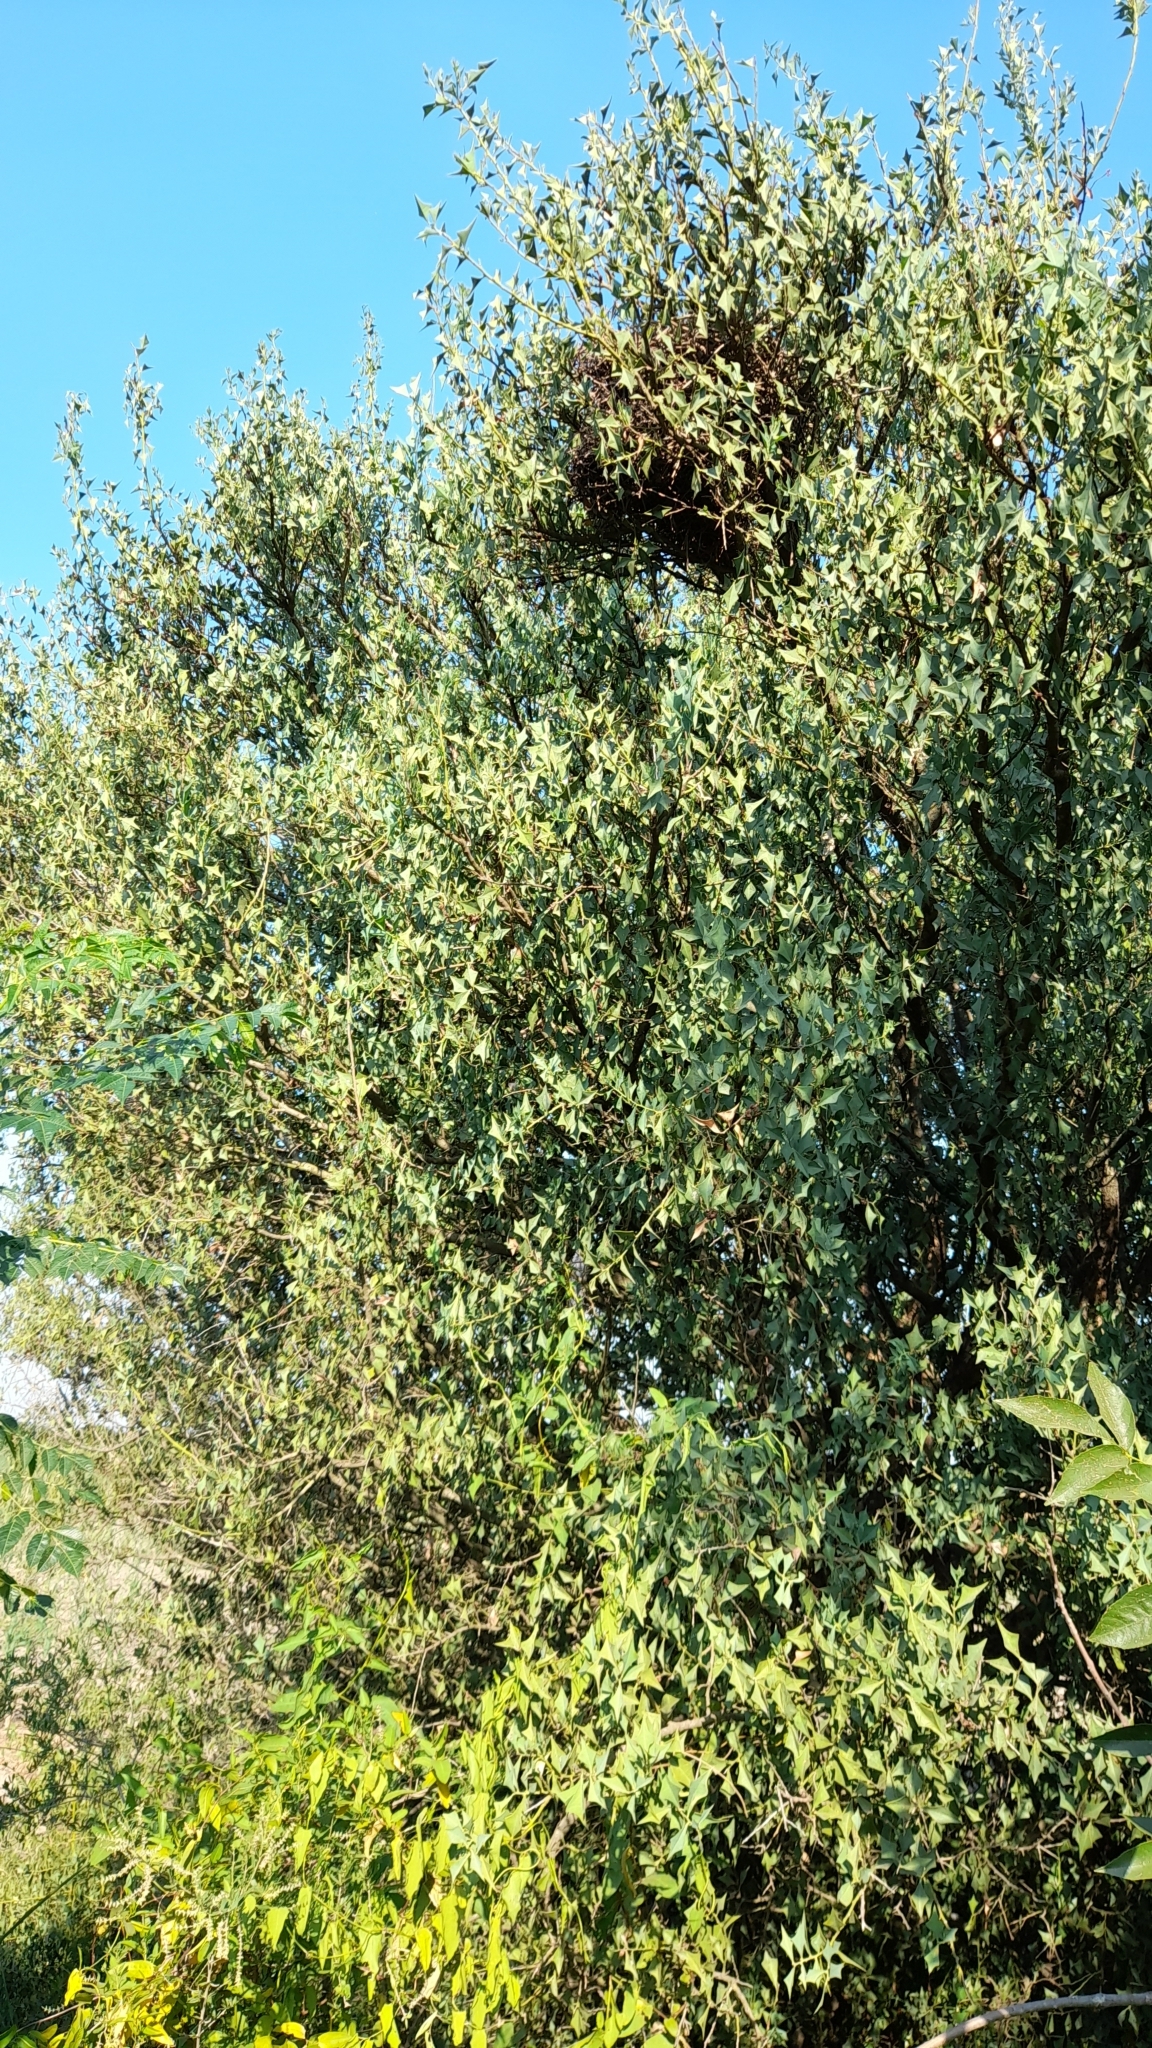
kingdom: Plantae
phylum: Tracheophyta
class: Magnoliopsida
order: Santalales
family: Cervantesiaceae
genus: Jodina
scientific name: Jodina rhombifolia
